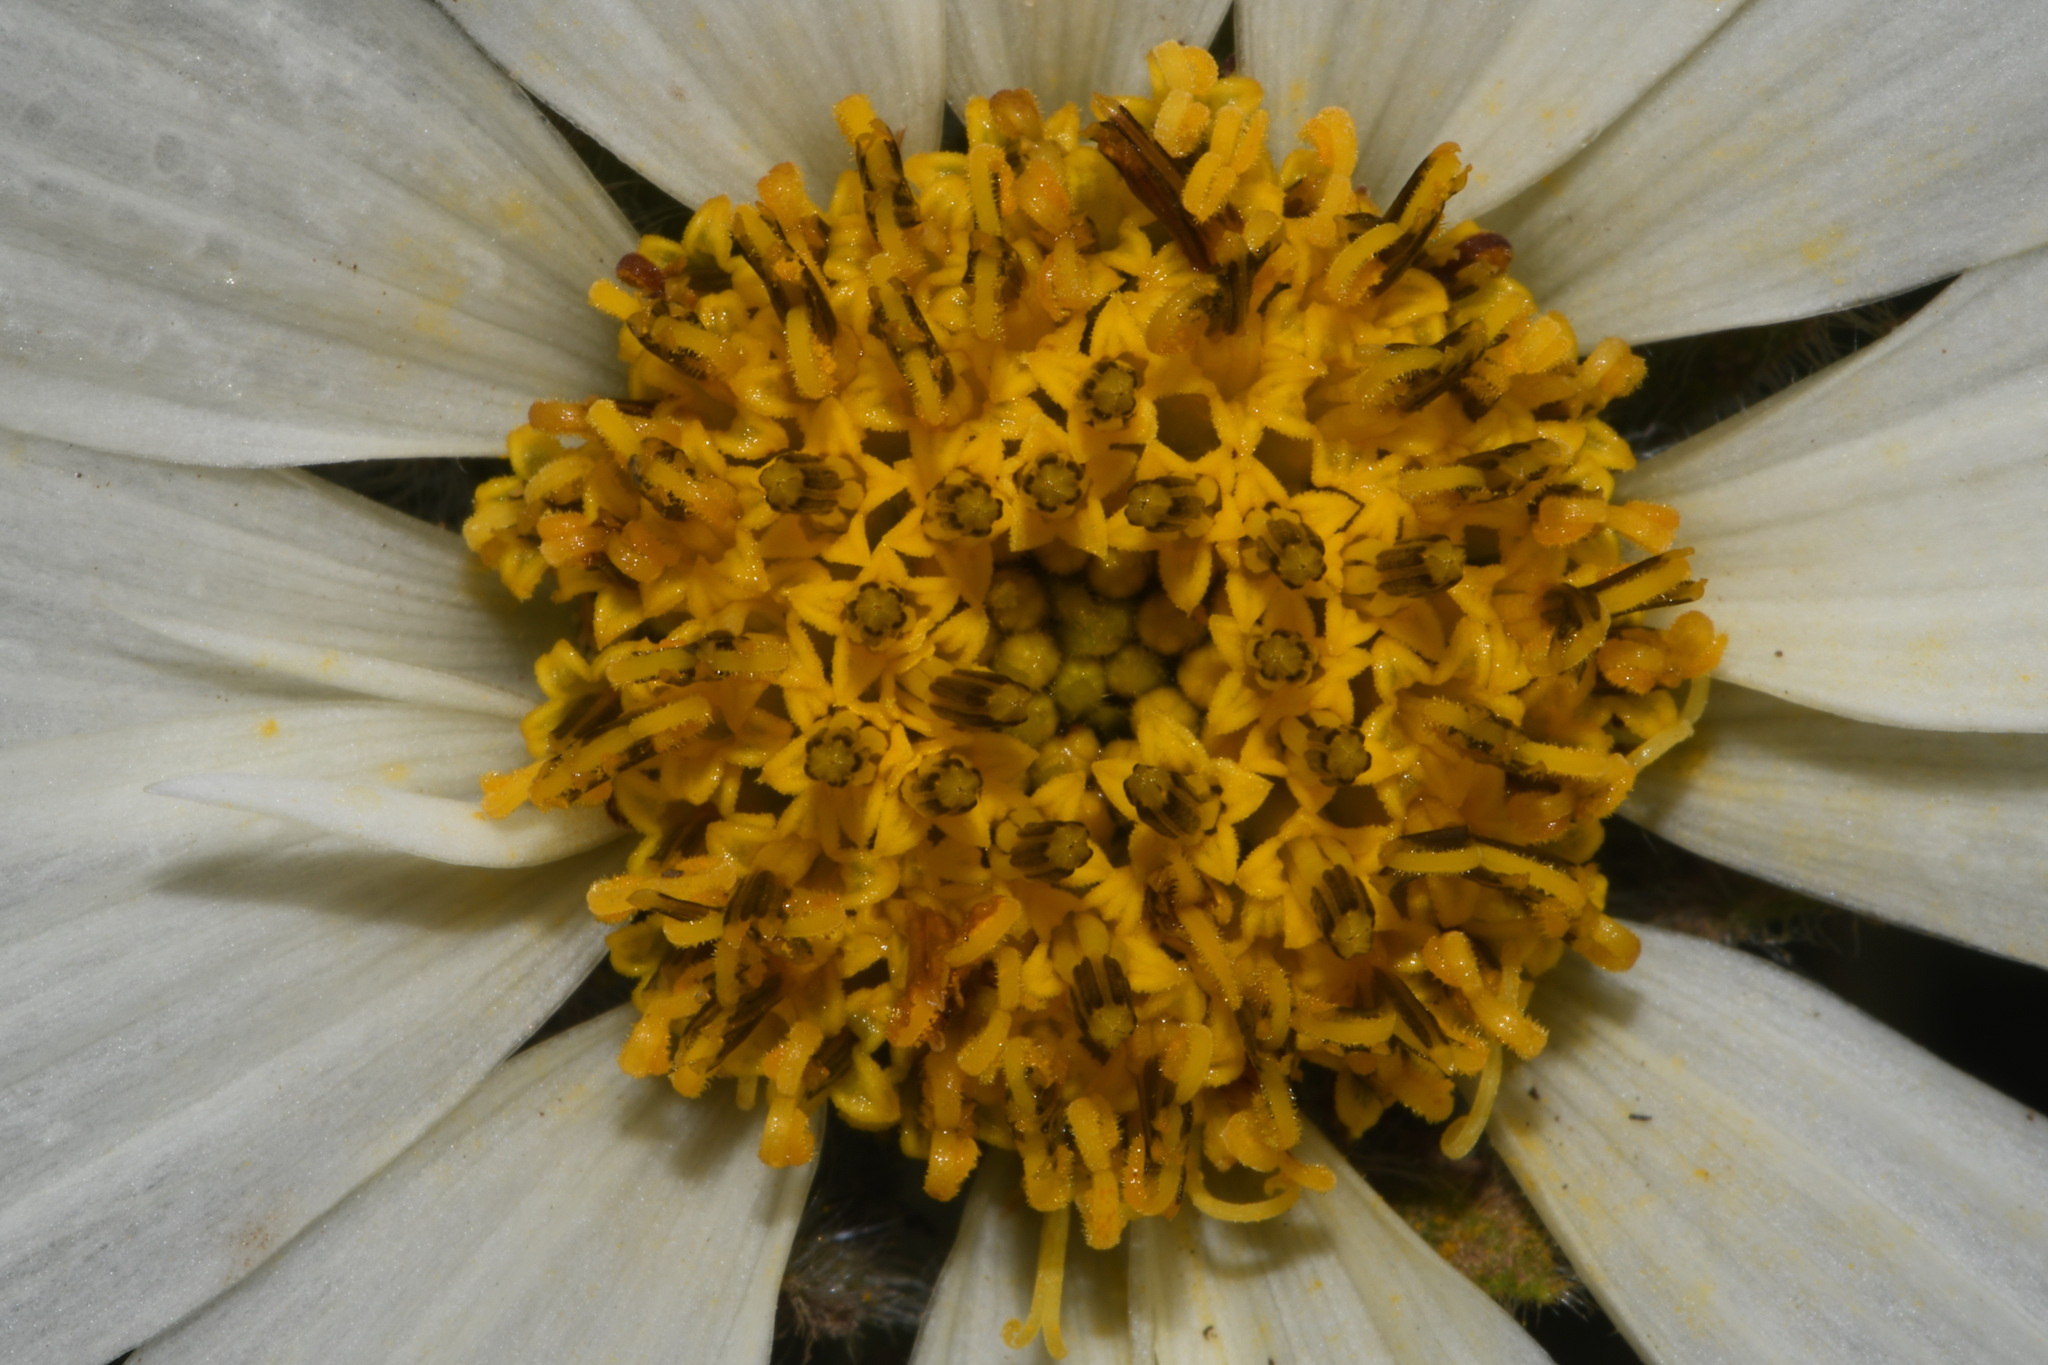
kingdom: Plantae
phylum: Tracheophyta
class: Magnoliopsida
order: Asterales
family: Asteraceae
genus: Wyethia
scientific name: Wyethia helianthoides
